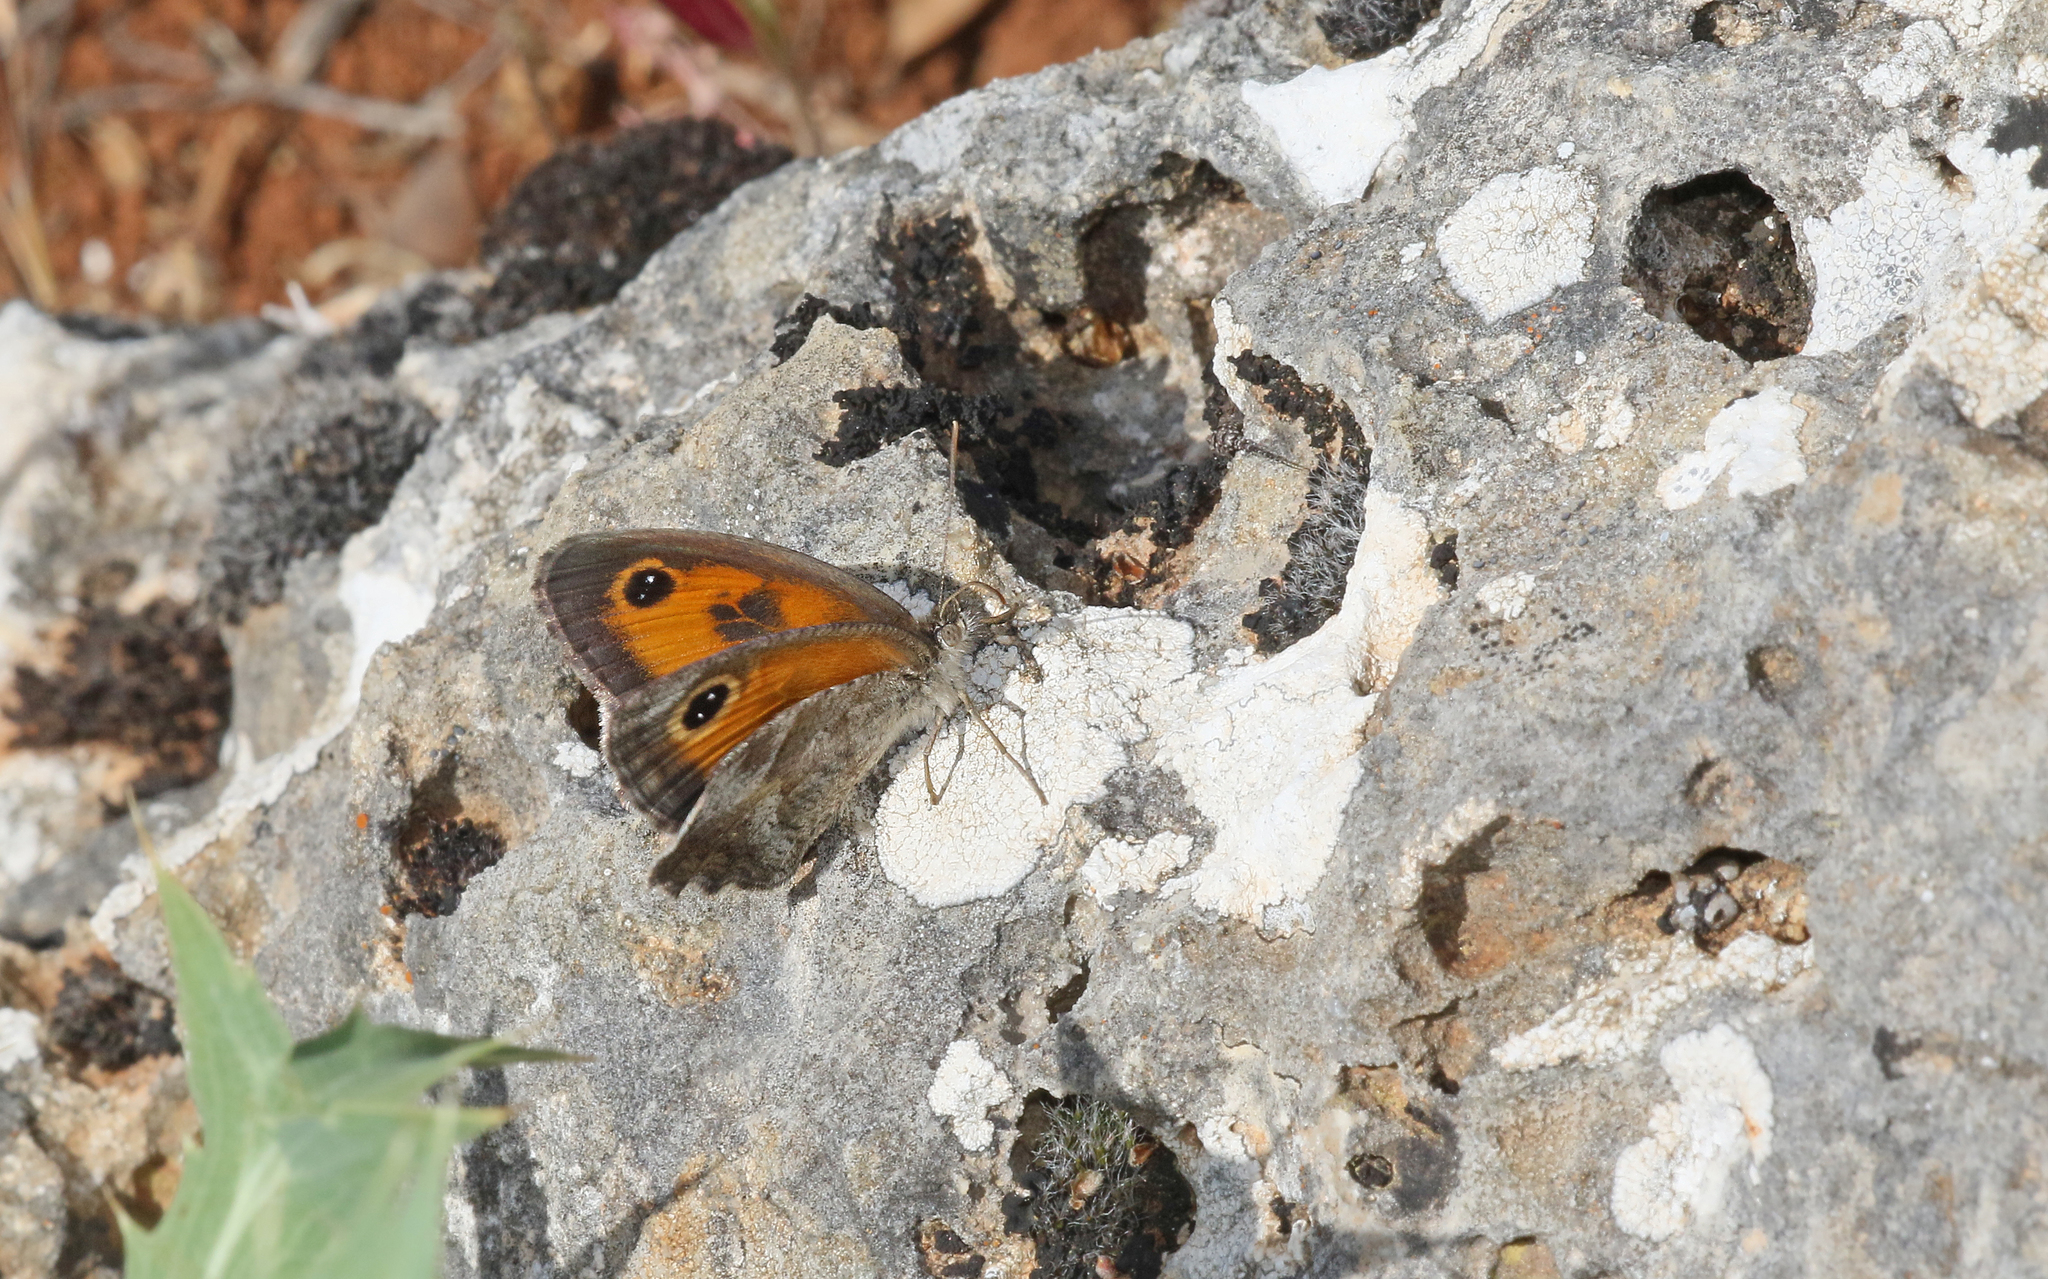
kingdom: Animalia
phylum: Arthropoda
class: Insecta
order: Lepidoptera
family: Nymphalidae
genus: Pyronia
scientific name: Pyronia cecilia
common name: Southern gatekeeper
